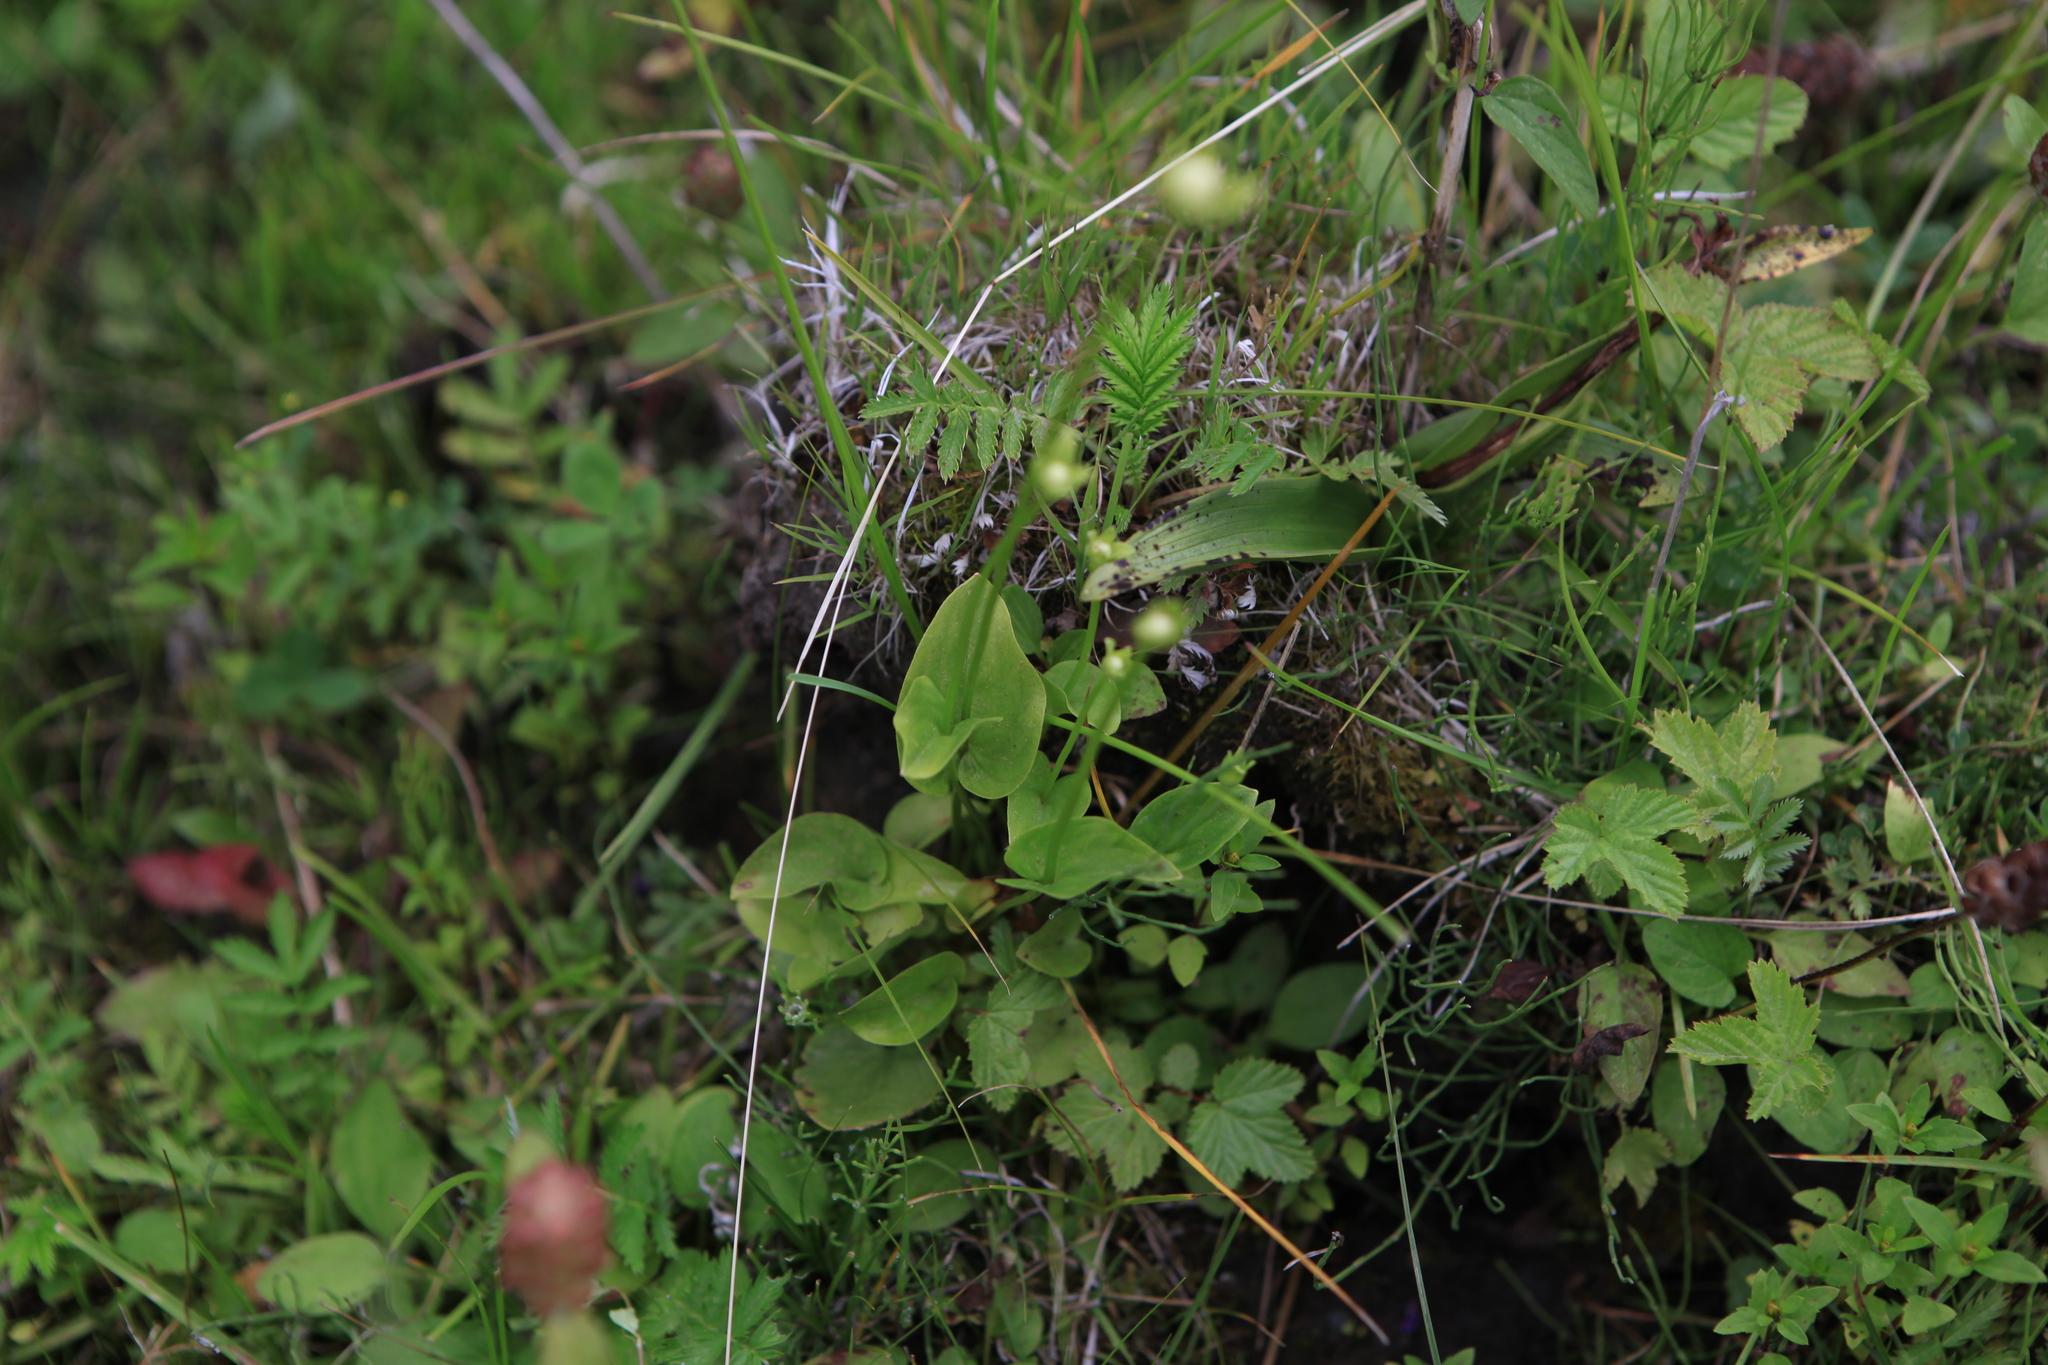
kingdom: Plantae
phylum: Tracheophyta
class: Magnoliopsida
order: Celastrales
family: Parnassiaceae
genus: Parnassia
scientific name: Parnassia palustris
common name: Grass-of-parnassus
